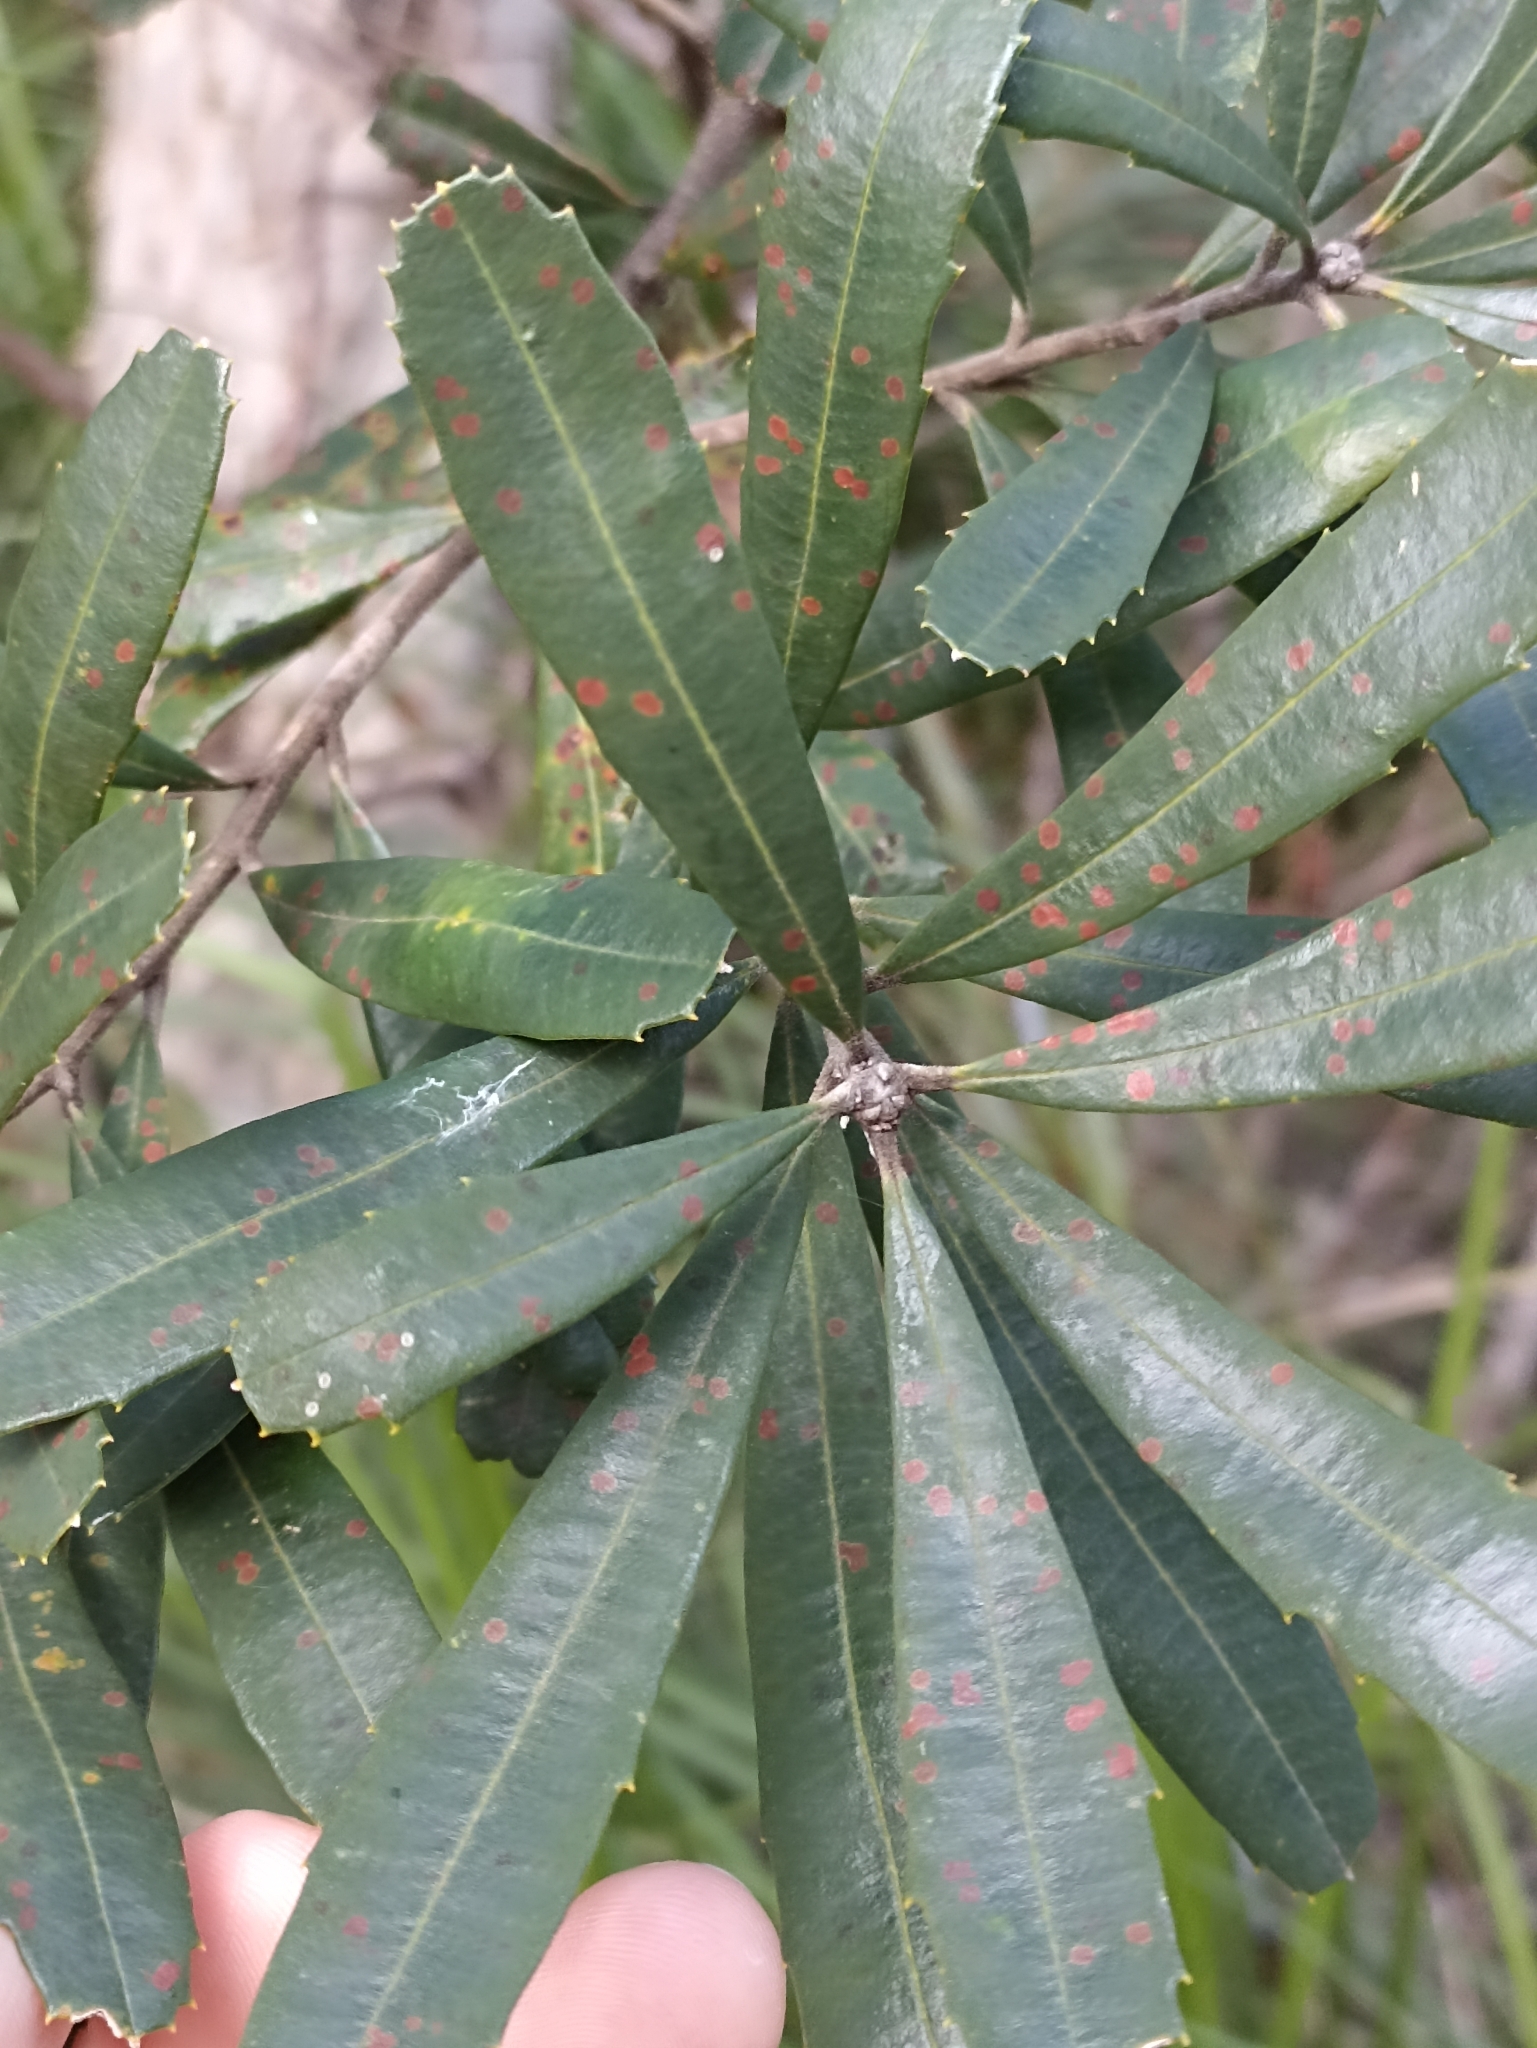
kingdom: Plantae
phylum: Tracheophyta
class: Magnoliopsida
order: Proteales
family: Proteaceae
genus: Banksia
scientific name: Banksia oblongifolia
